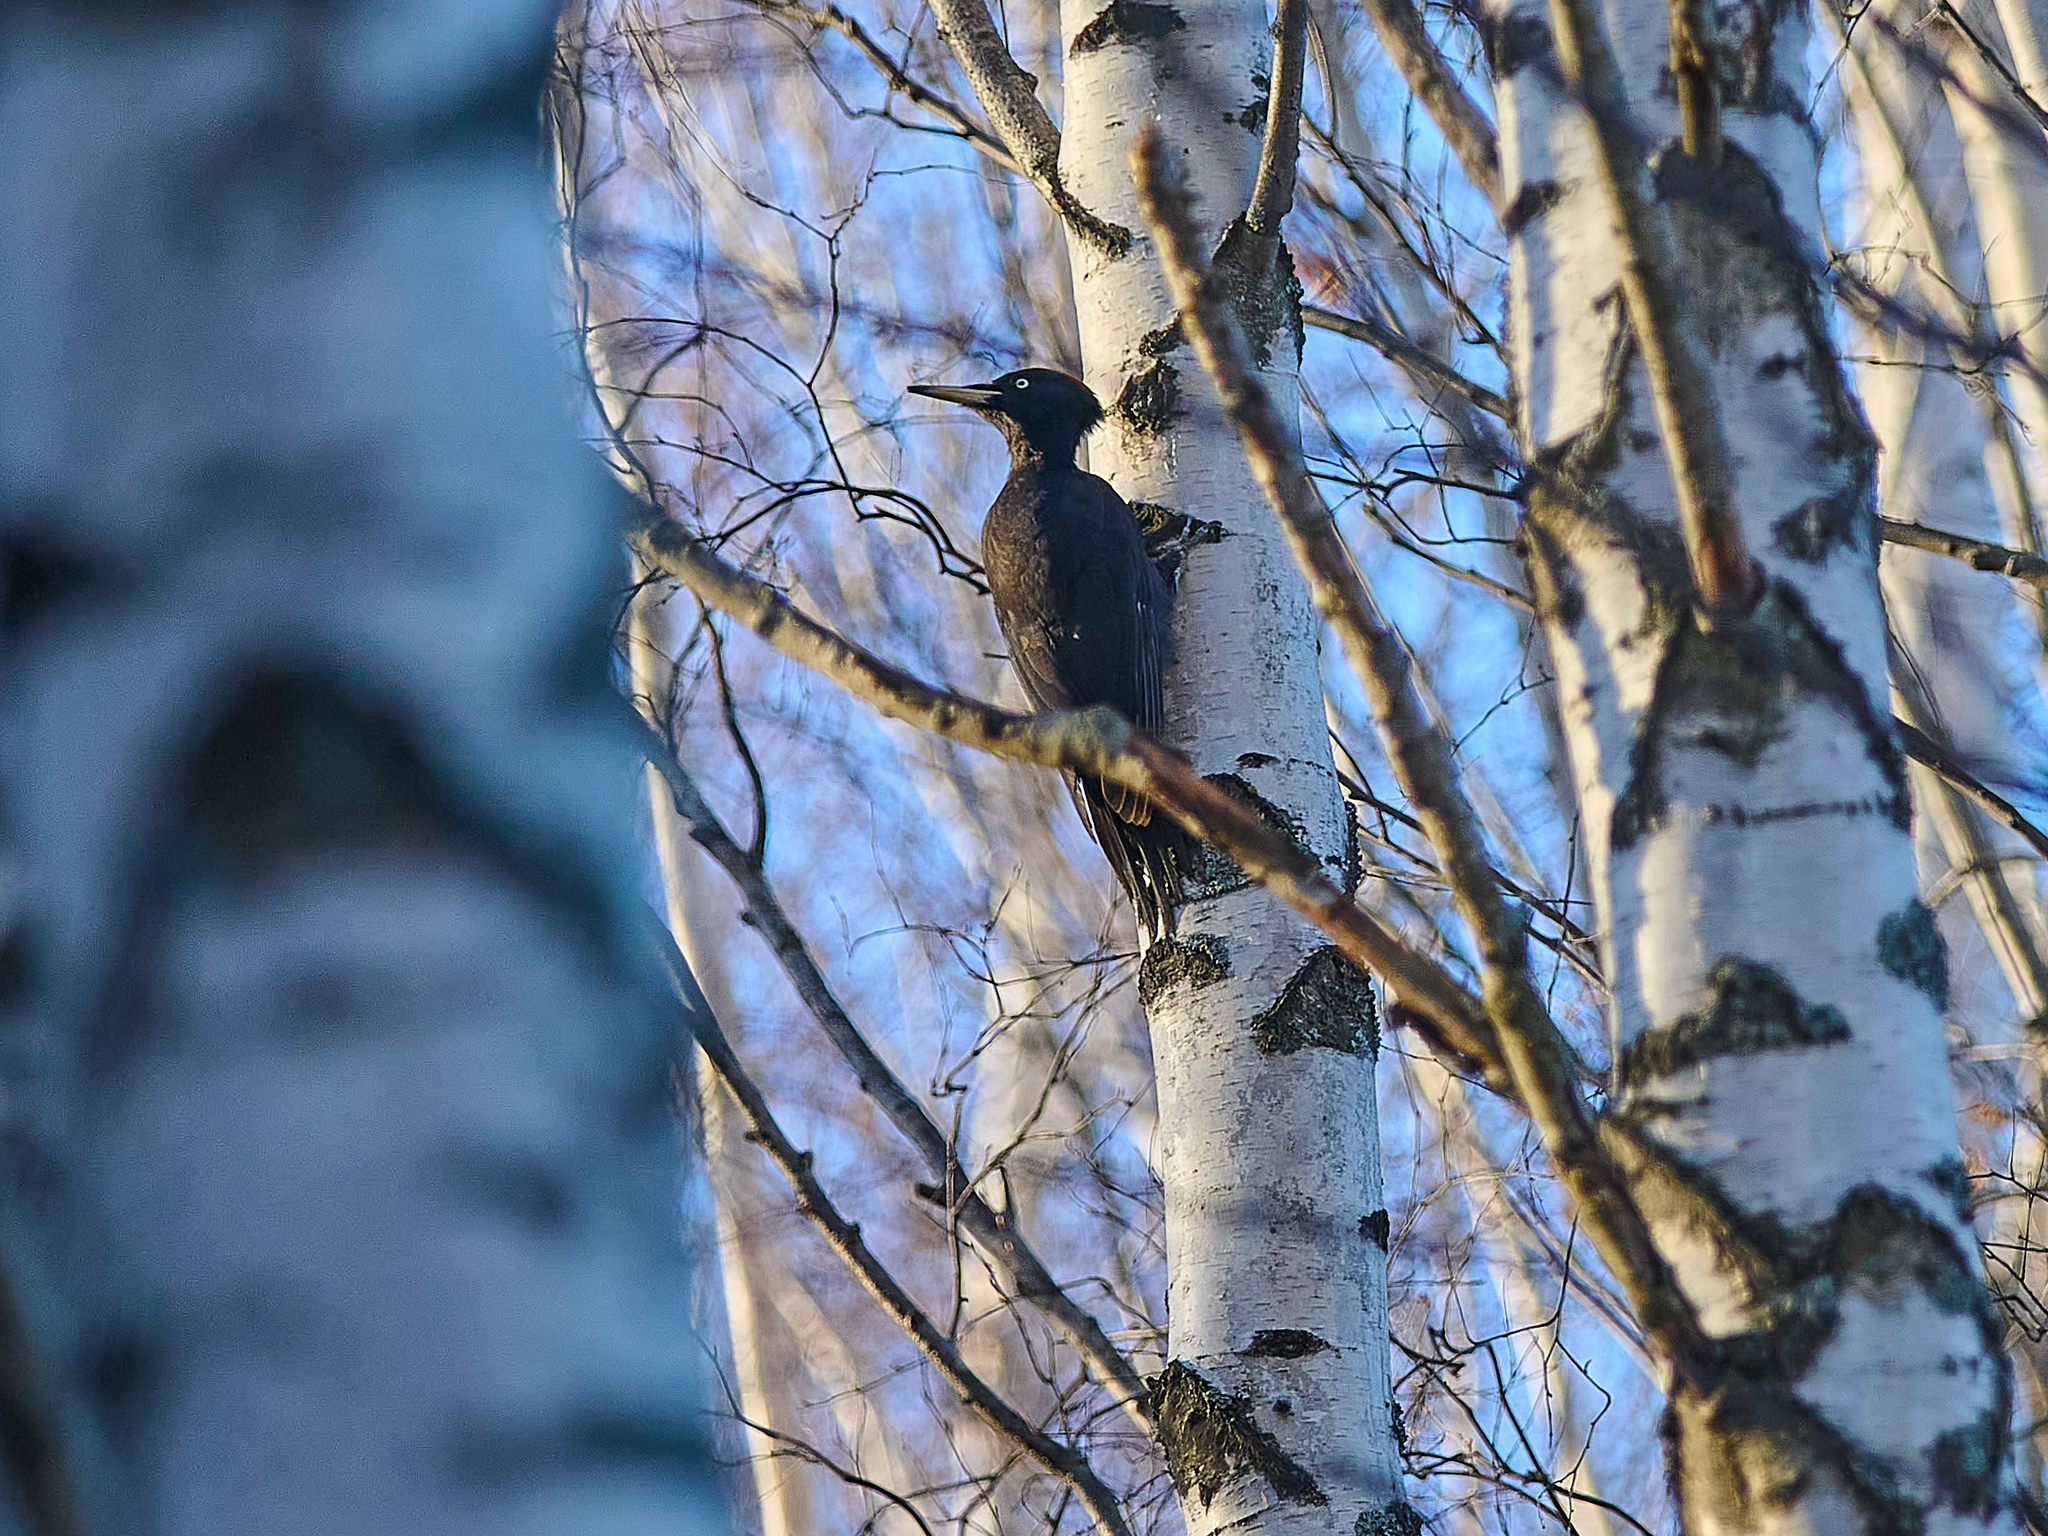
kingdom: Animalia
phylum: Chordata
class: Aves
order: Piciformes
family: Picidae
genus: Dryocopus
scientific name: Dryocopus martius
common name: Black woodpecker
